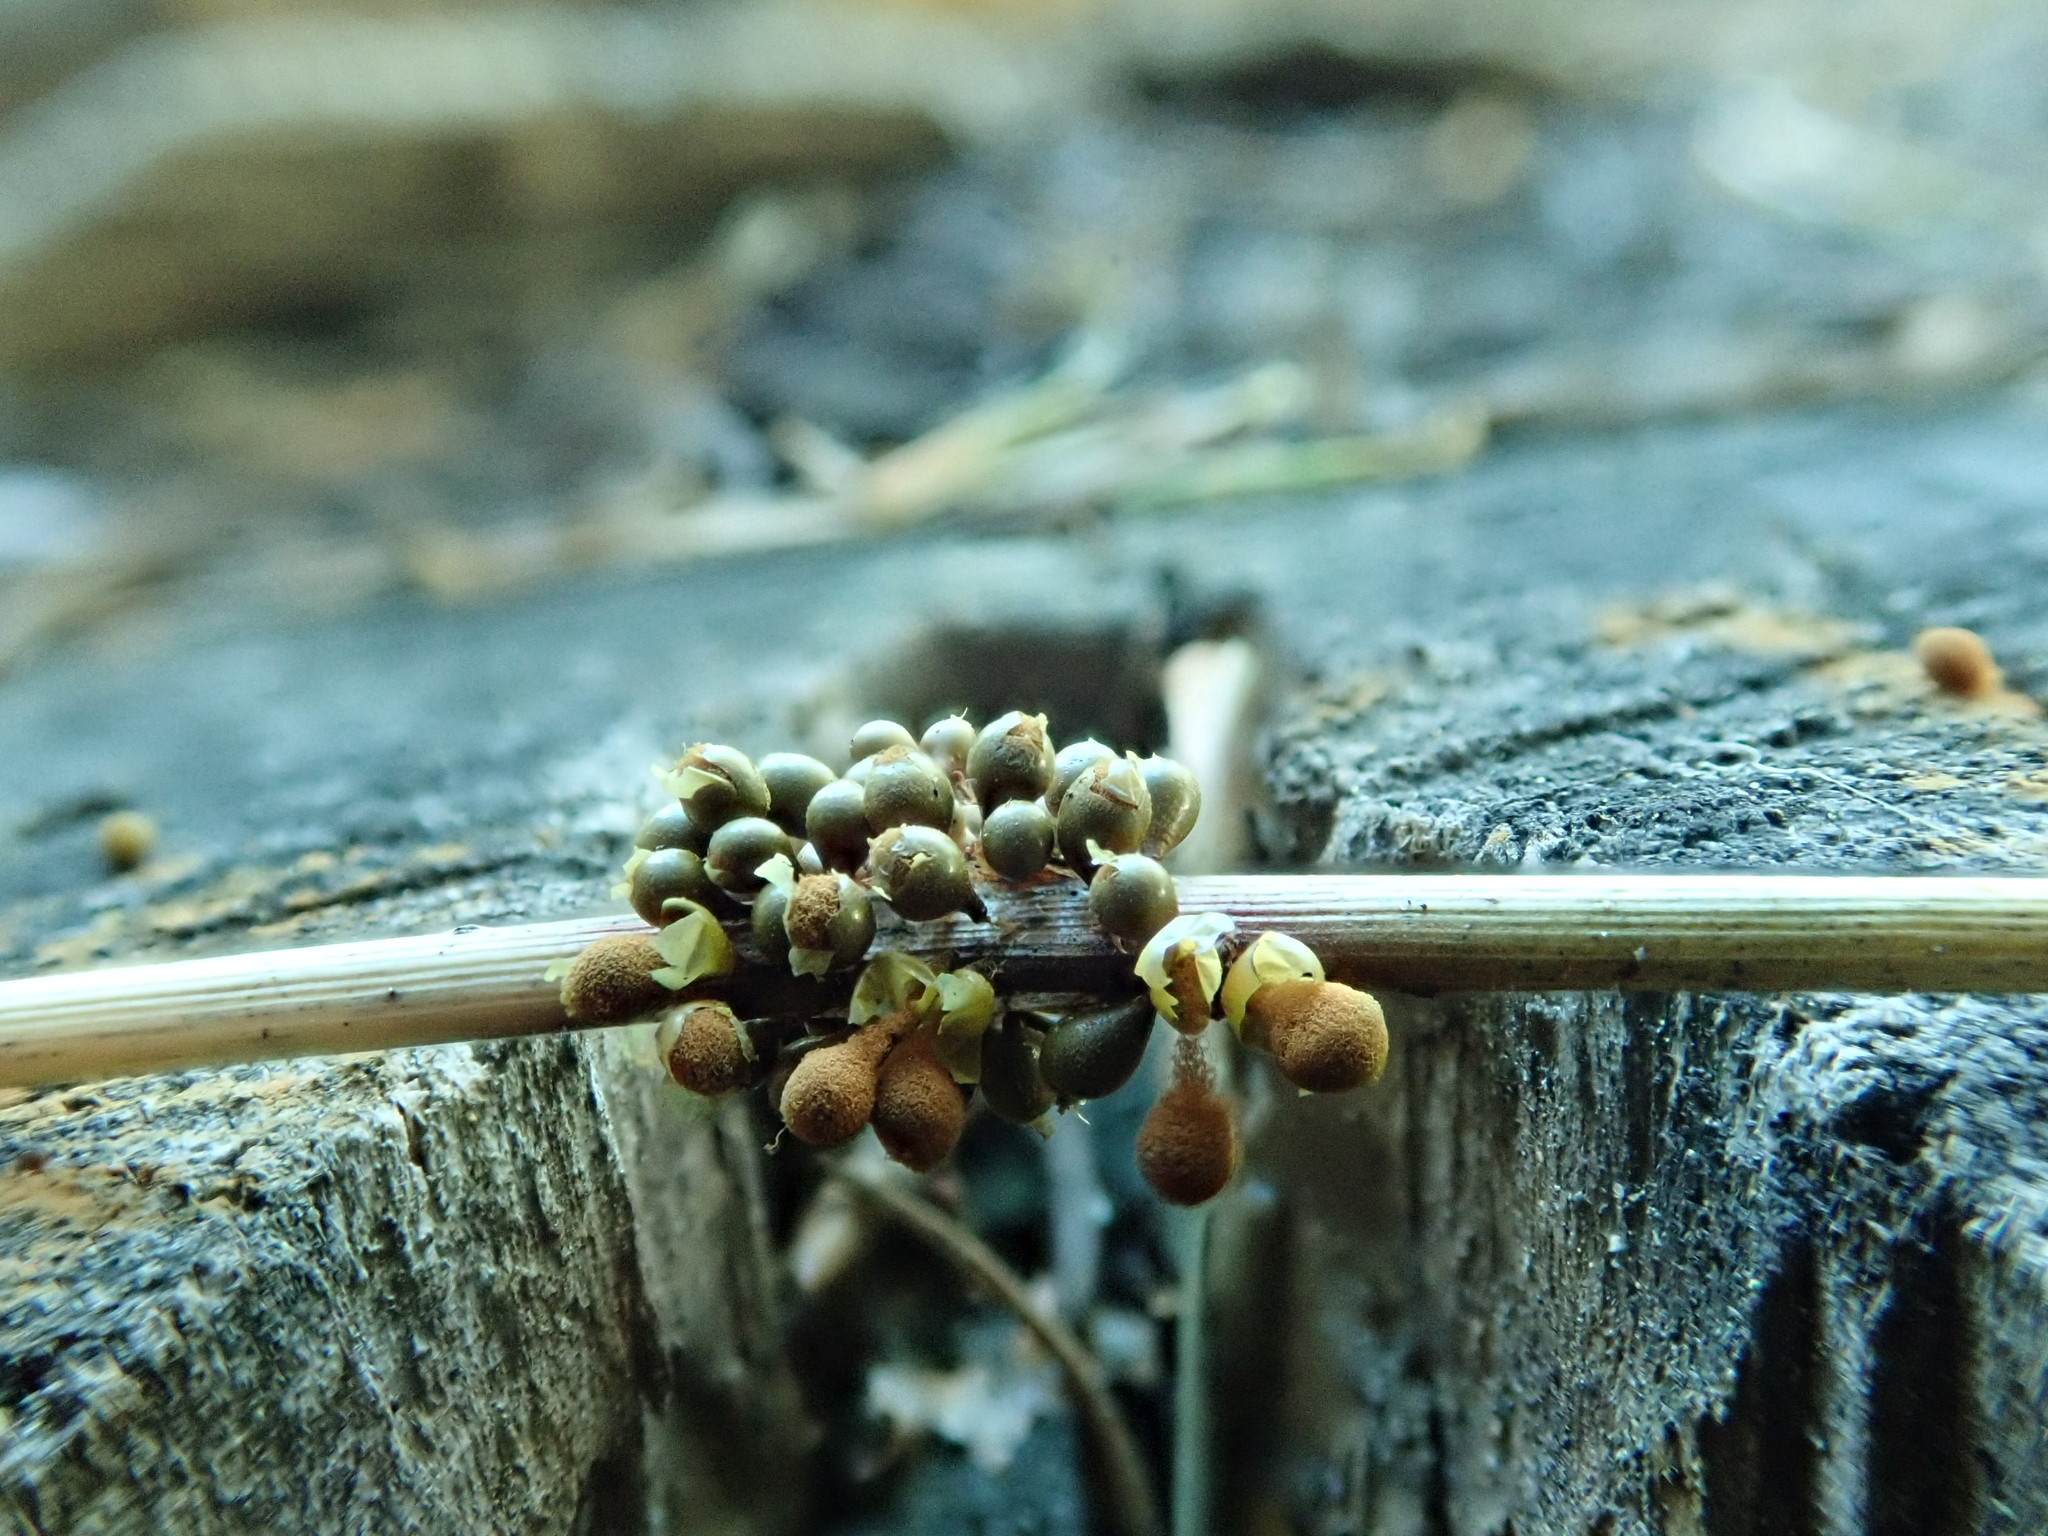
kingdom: Protozoa
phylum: Mycetozoa
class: Myxomycetes
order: Trichiales
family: Arcyriaceae
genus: Arcyria
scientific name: Arcyria versicolor
